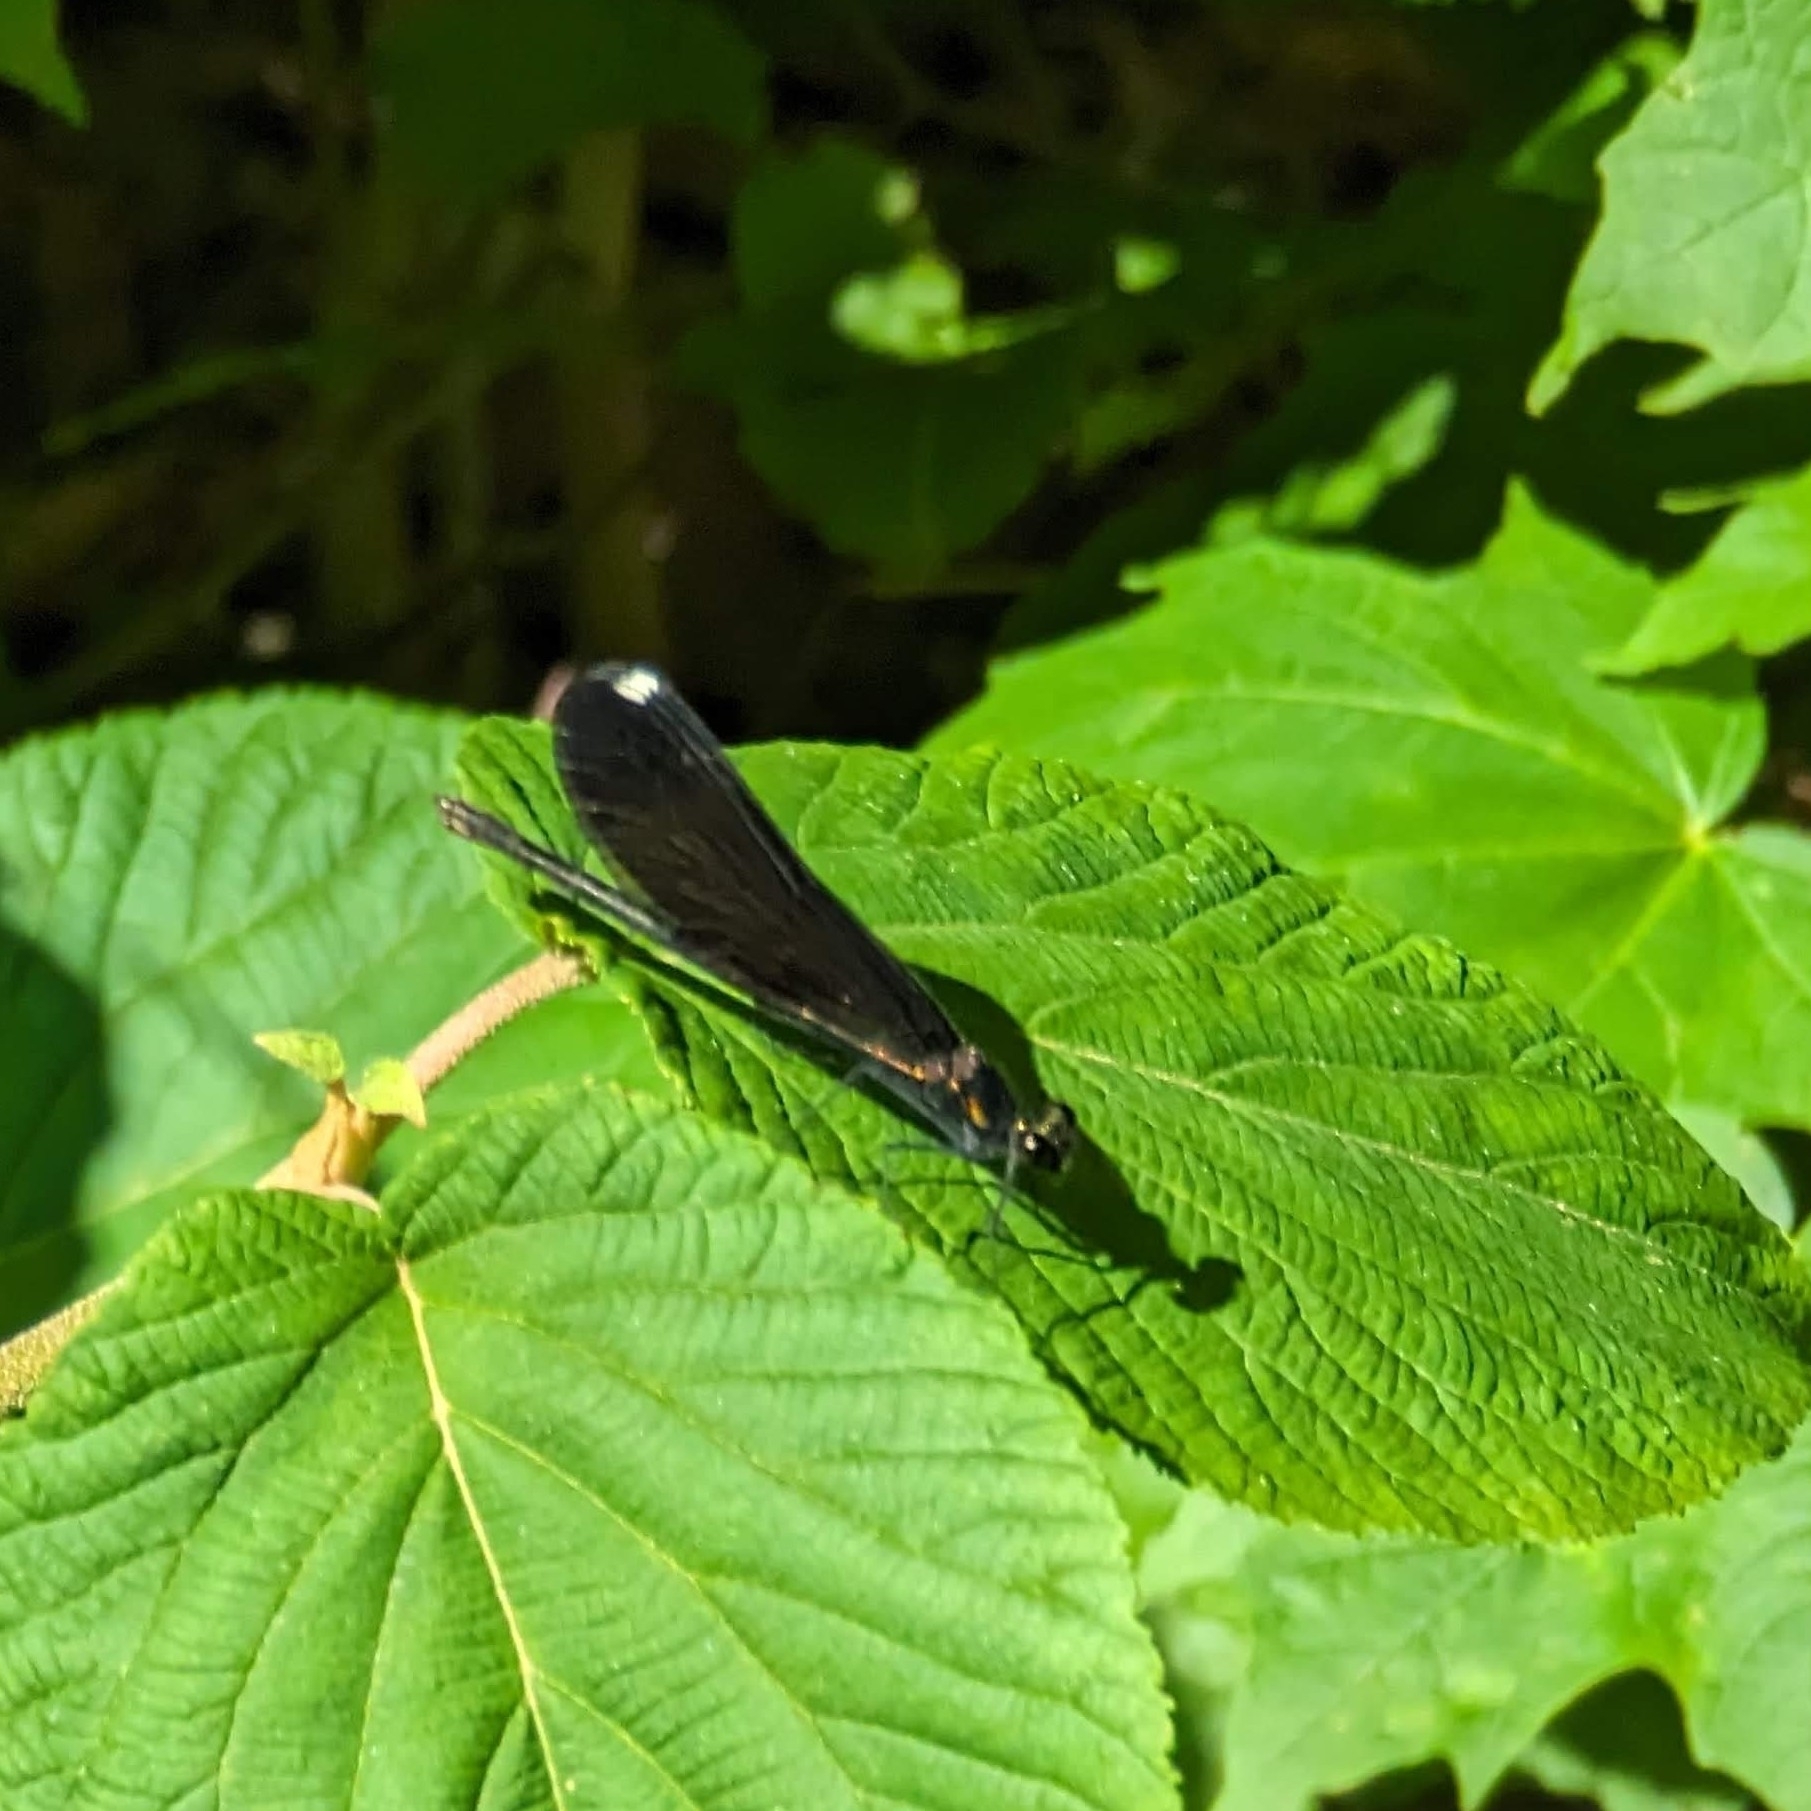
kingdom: Animalia
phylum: Arthropoda
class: Insecta
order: Odonata
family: Calopterygidae
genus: Calopteryx
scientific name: Calopteryx maculata
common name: Ebony jewelwing
